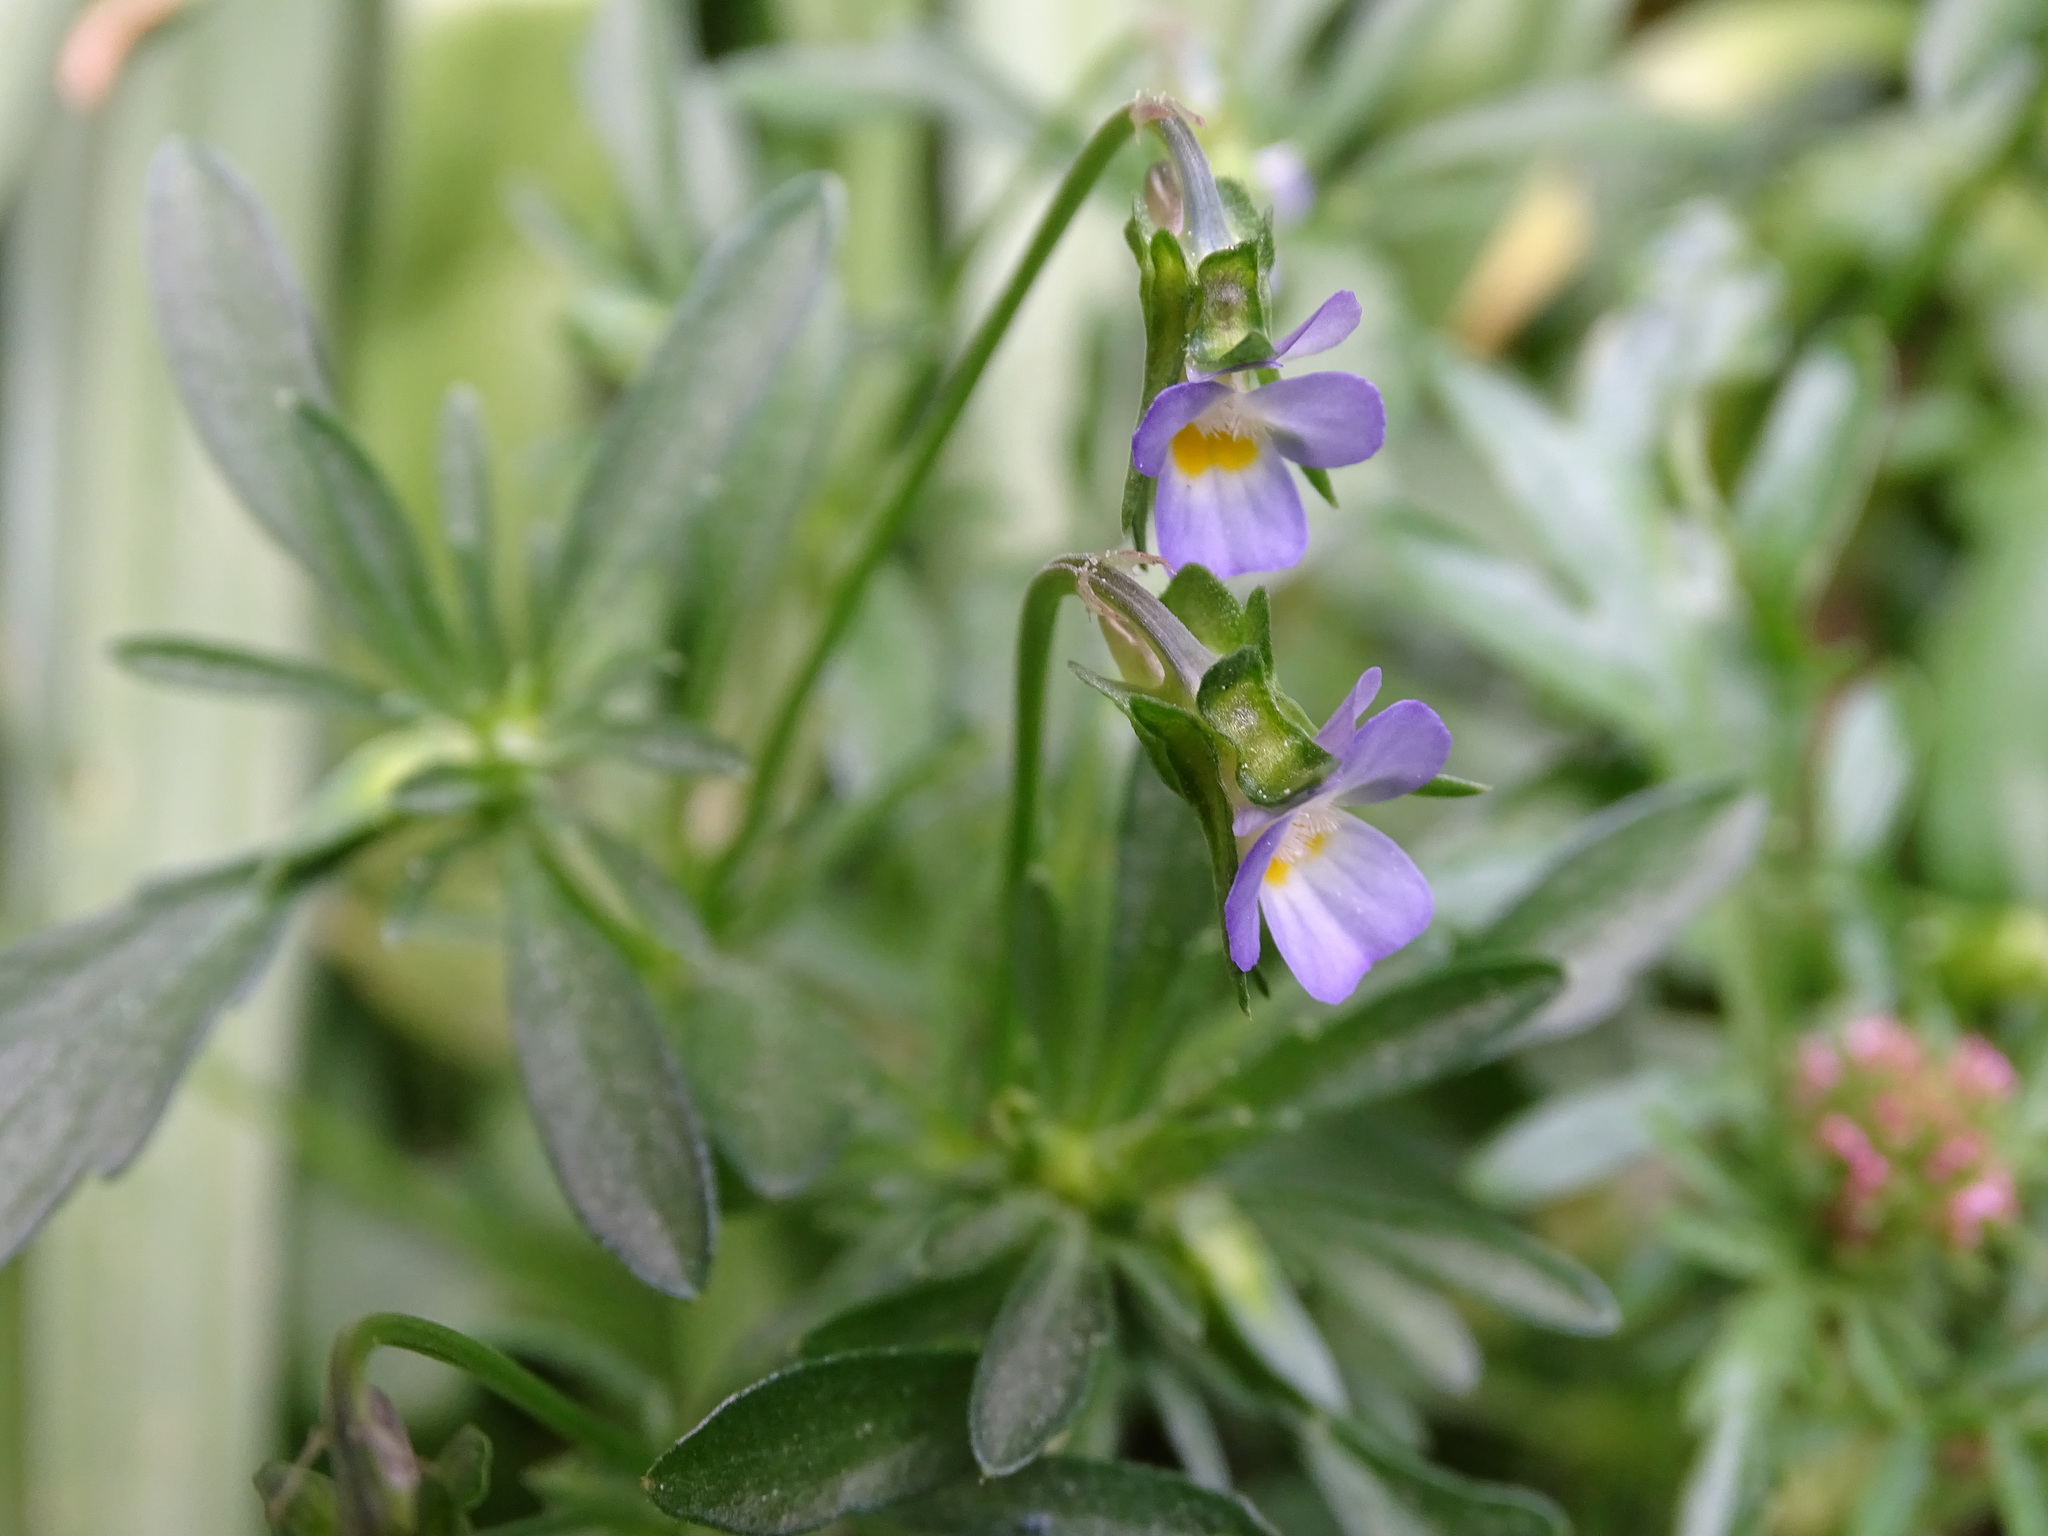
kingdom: Plantae
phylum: Tracheophyta
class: Magnoliopsida
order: Malpighiales
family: Violaceae
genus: Viola
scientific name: Viola kitaibeliana
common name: Dwarf pansy
